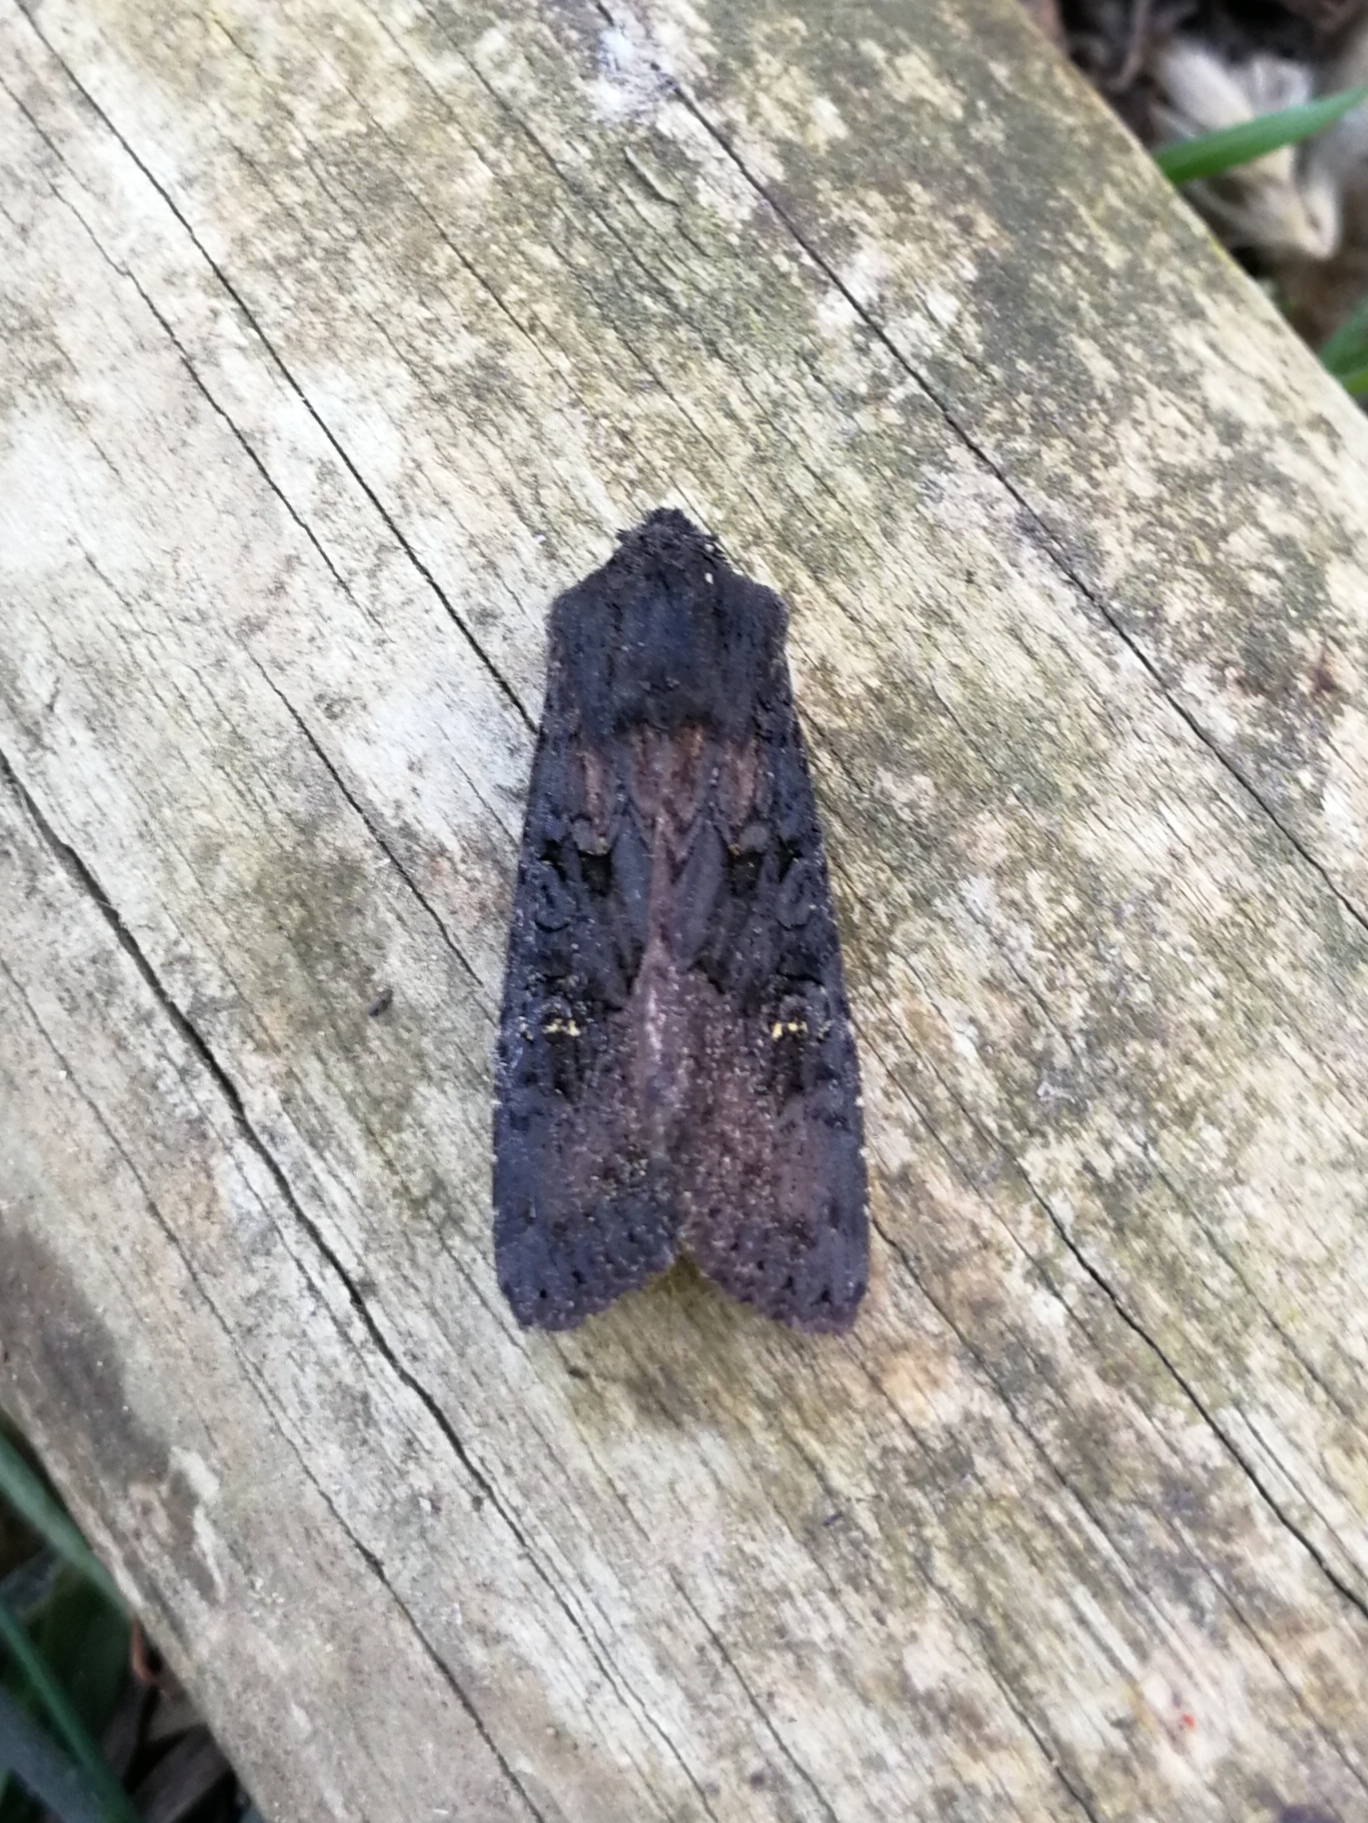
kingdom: Animalia
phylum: Arthropoda
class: Insecta
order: Lepidoptera
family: Noctuidae
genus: Aporophyla
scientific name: Aporophyla nigra
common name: Black rustic
